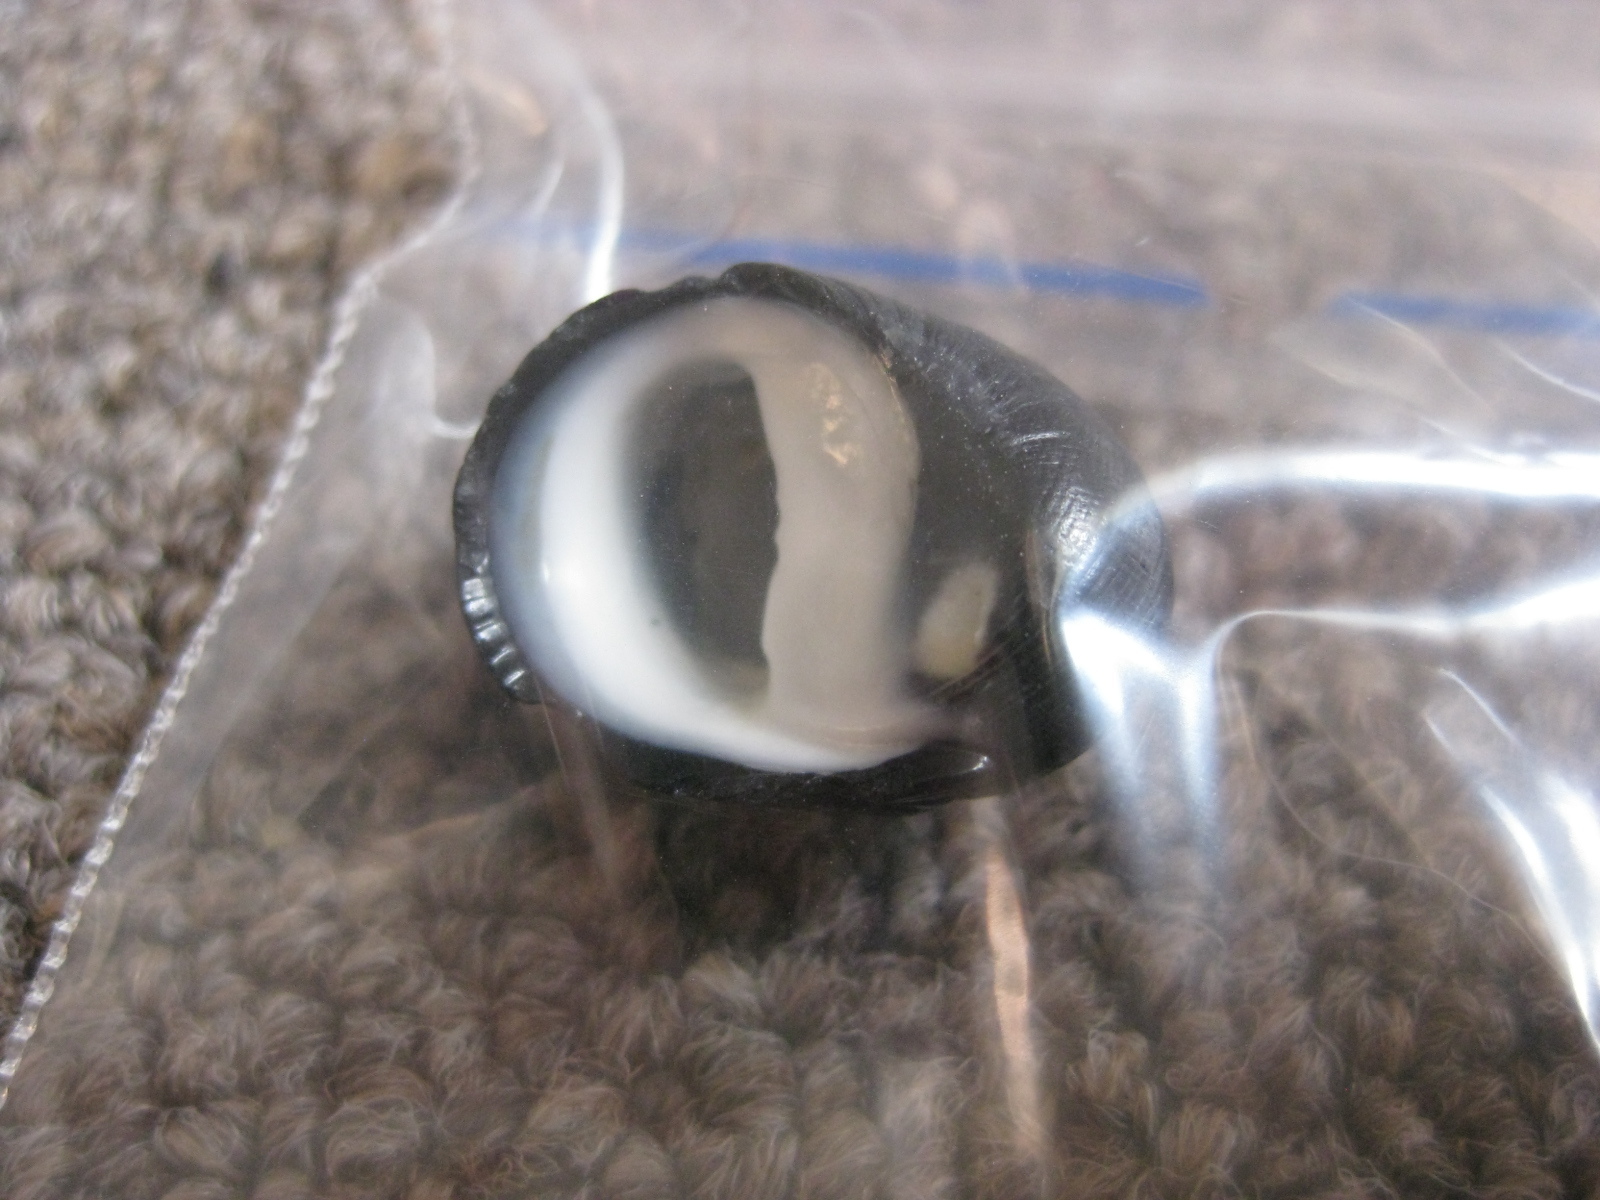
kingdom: Animalia
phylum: Mollusca
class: Gastropoda
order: Cycloneritida
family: Neritidae
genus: Nerita
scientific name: Nerita melanotragus
